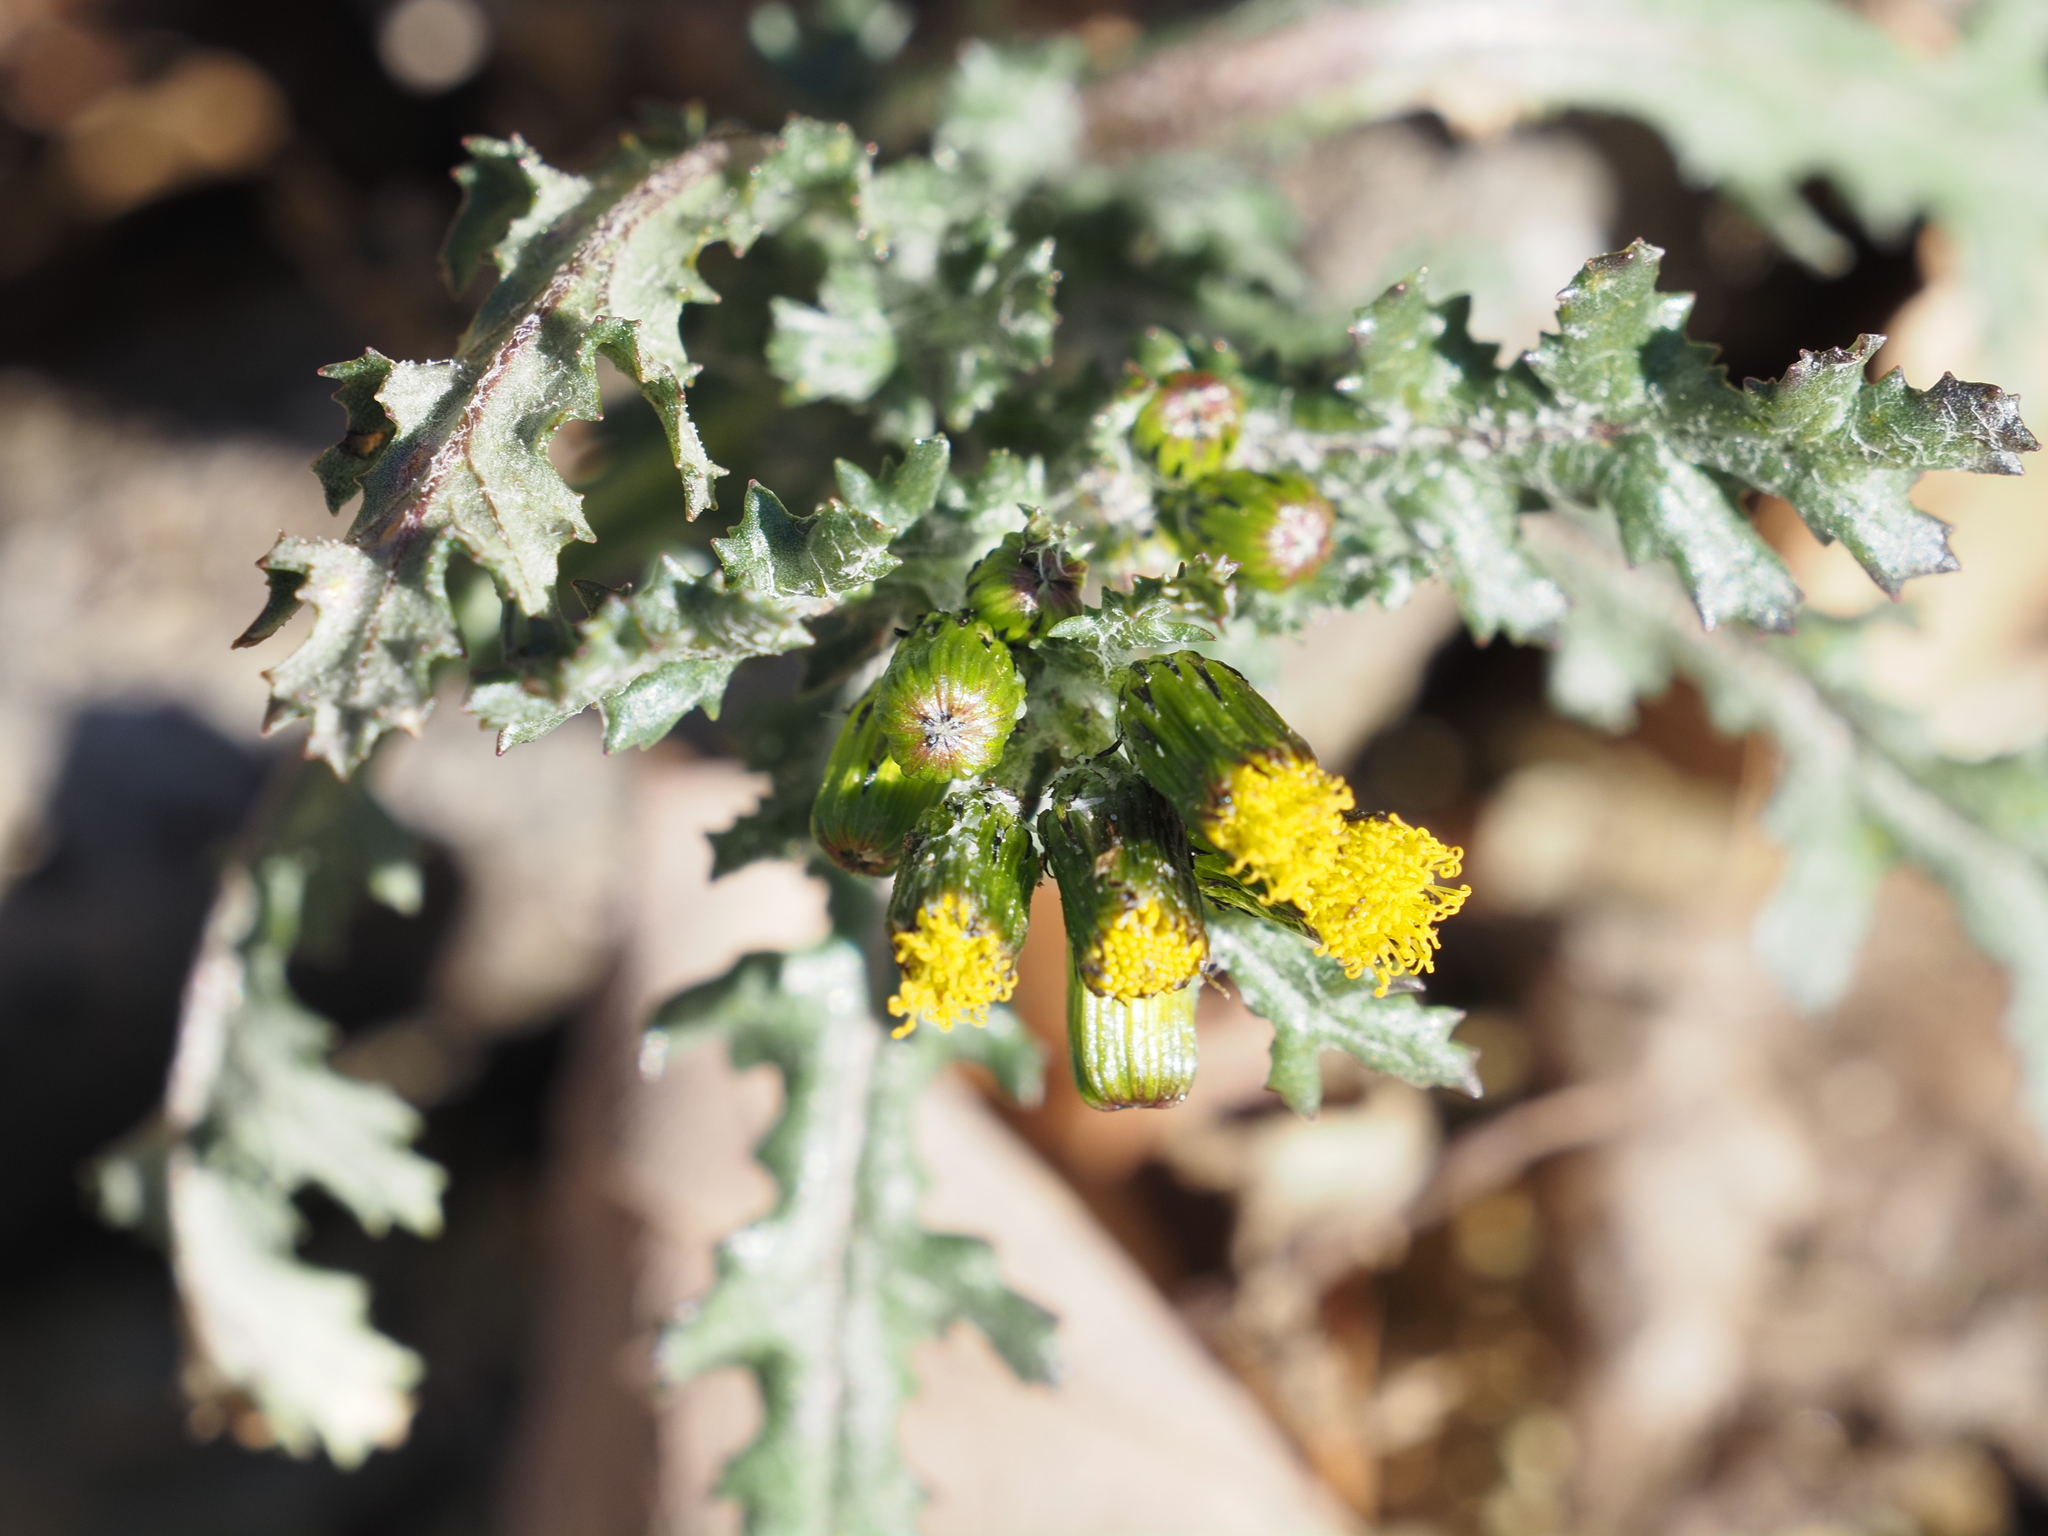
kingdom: Plantae
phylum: Tracheophyta
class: Magnoliopsida
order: Asterales
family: Asteraceae
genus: Senecio
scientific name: Senecio vulgaris
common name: Old-man-in-the-spring
